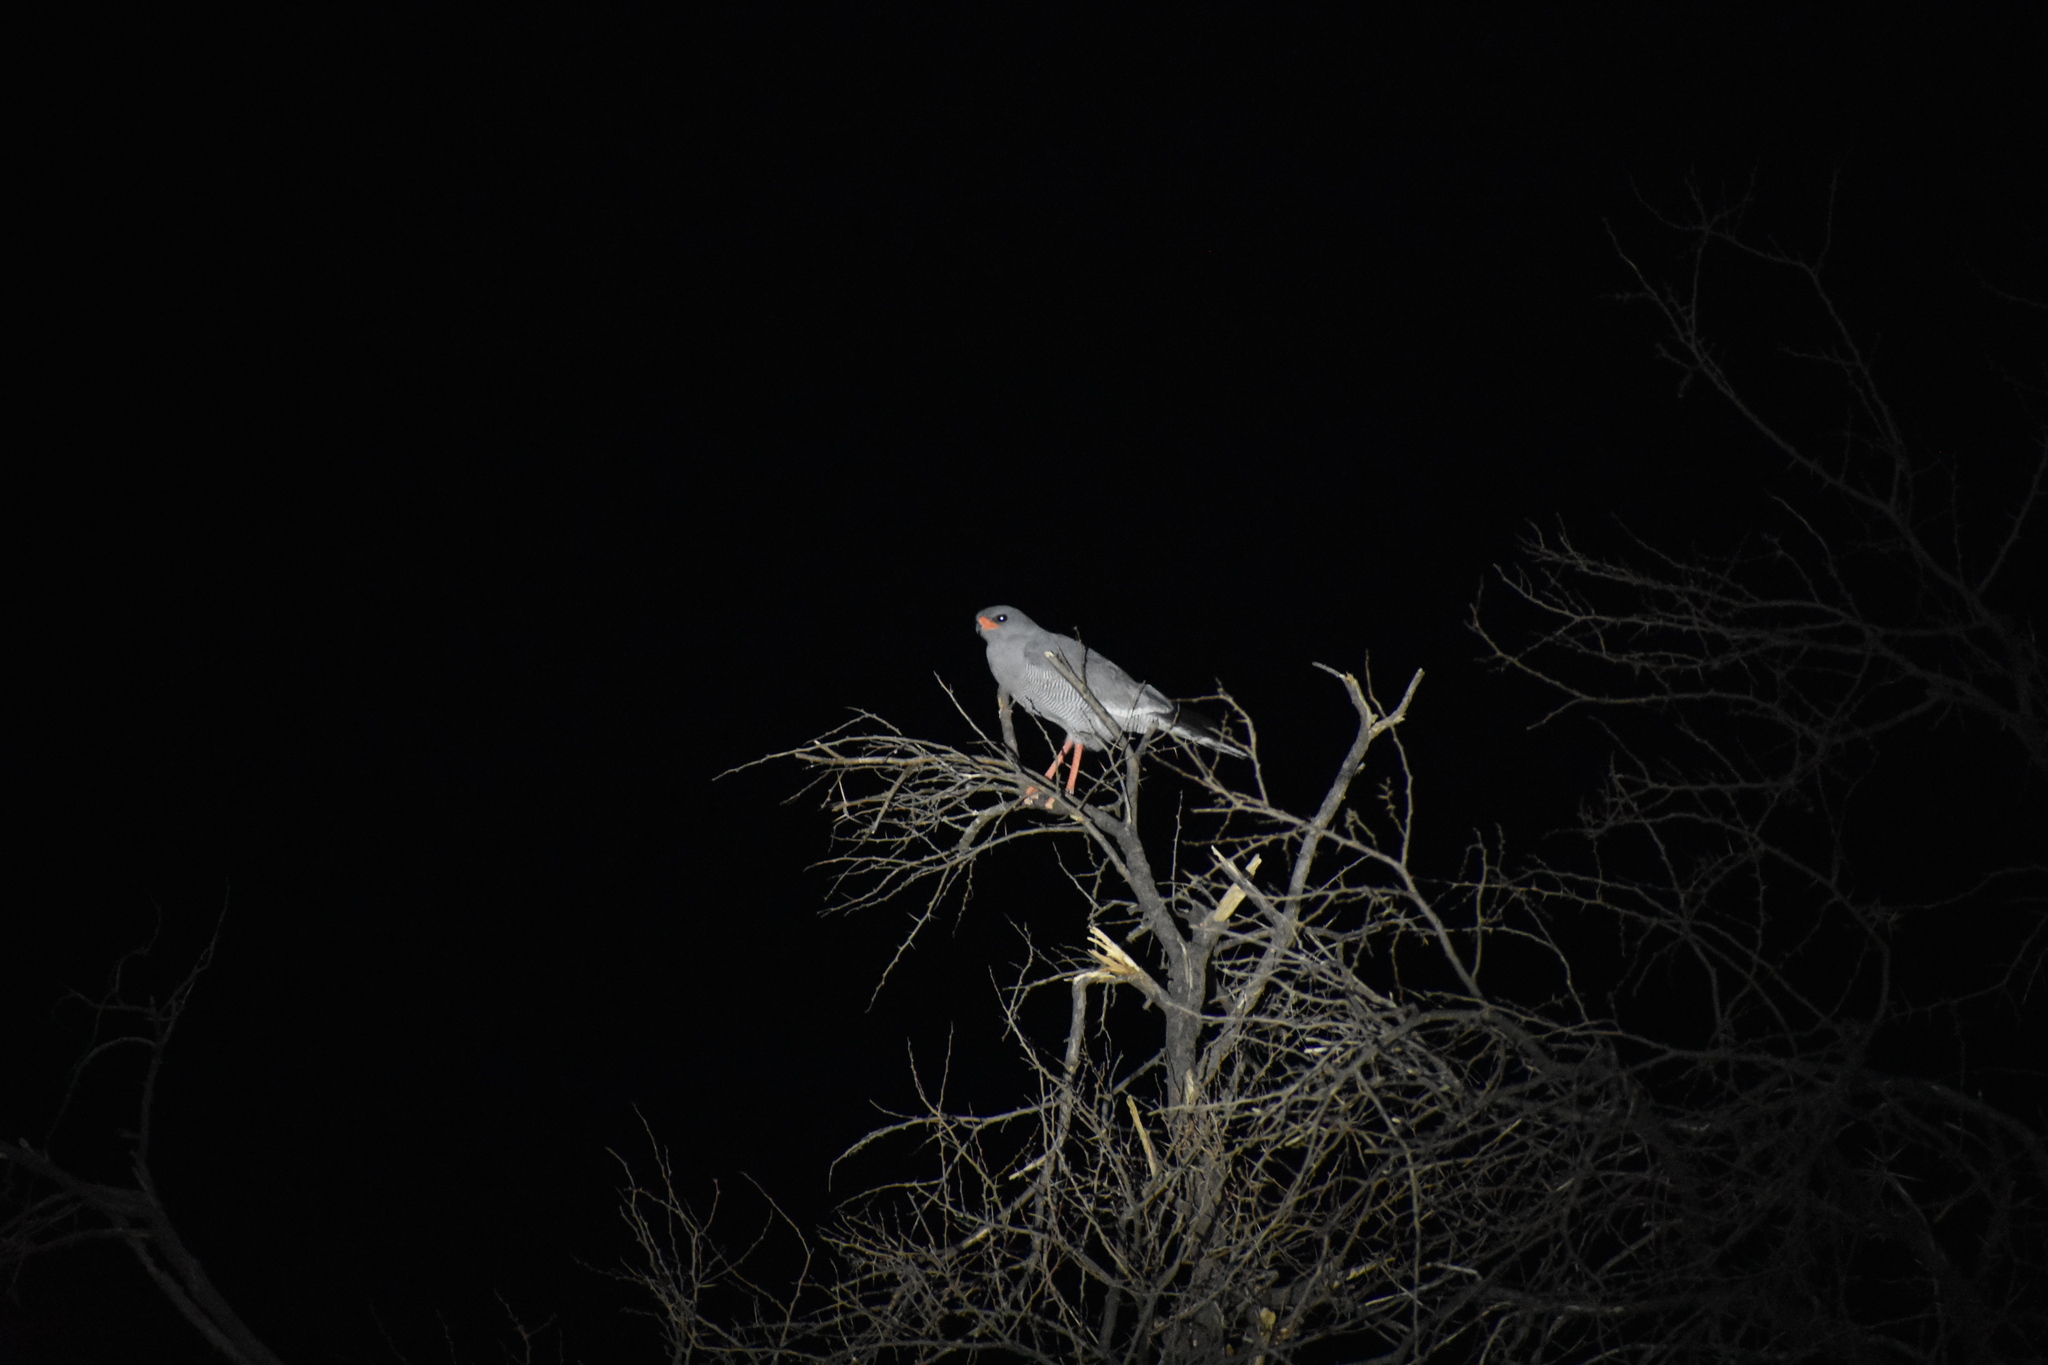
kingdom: Animalia
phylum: Chordata
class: Aves
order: Accipitriformes
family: Accipitridae
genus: Melierax
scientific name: Melierax canorus
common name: Pale chanting-goshawk
